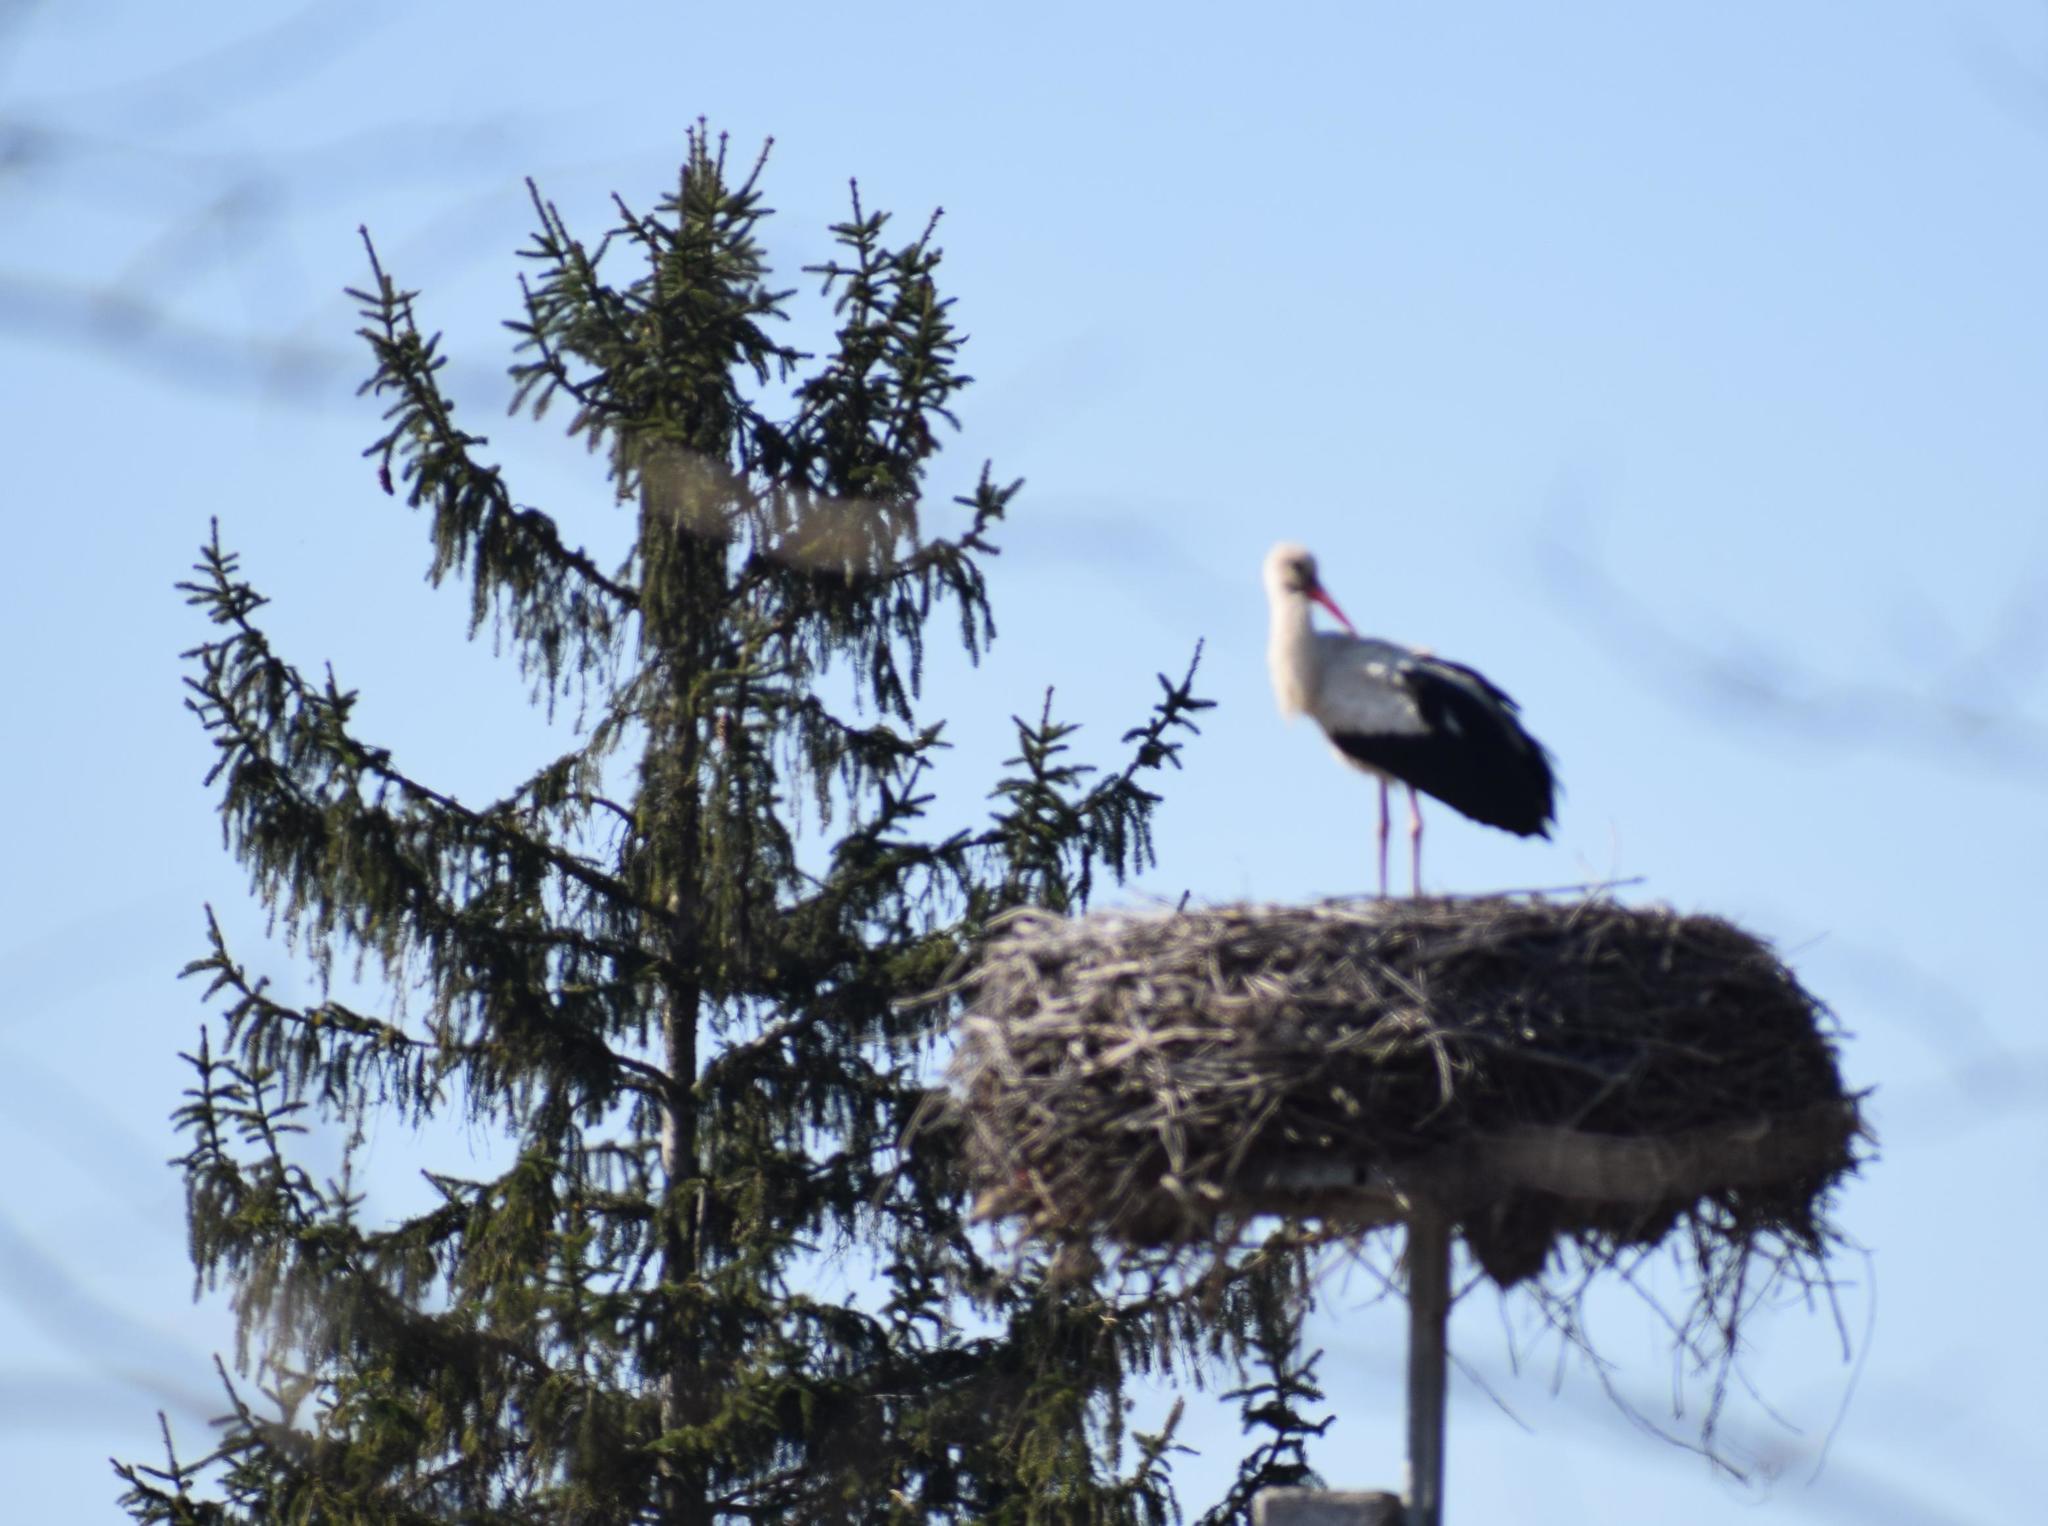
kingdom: Animalia
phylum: Chordata
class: Aves
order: Ciconiiformes
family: Ciconiidae
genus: Ciconia
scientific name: Ciconia ciconia
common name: White stork
